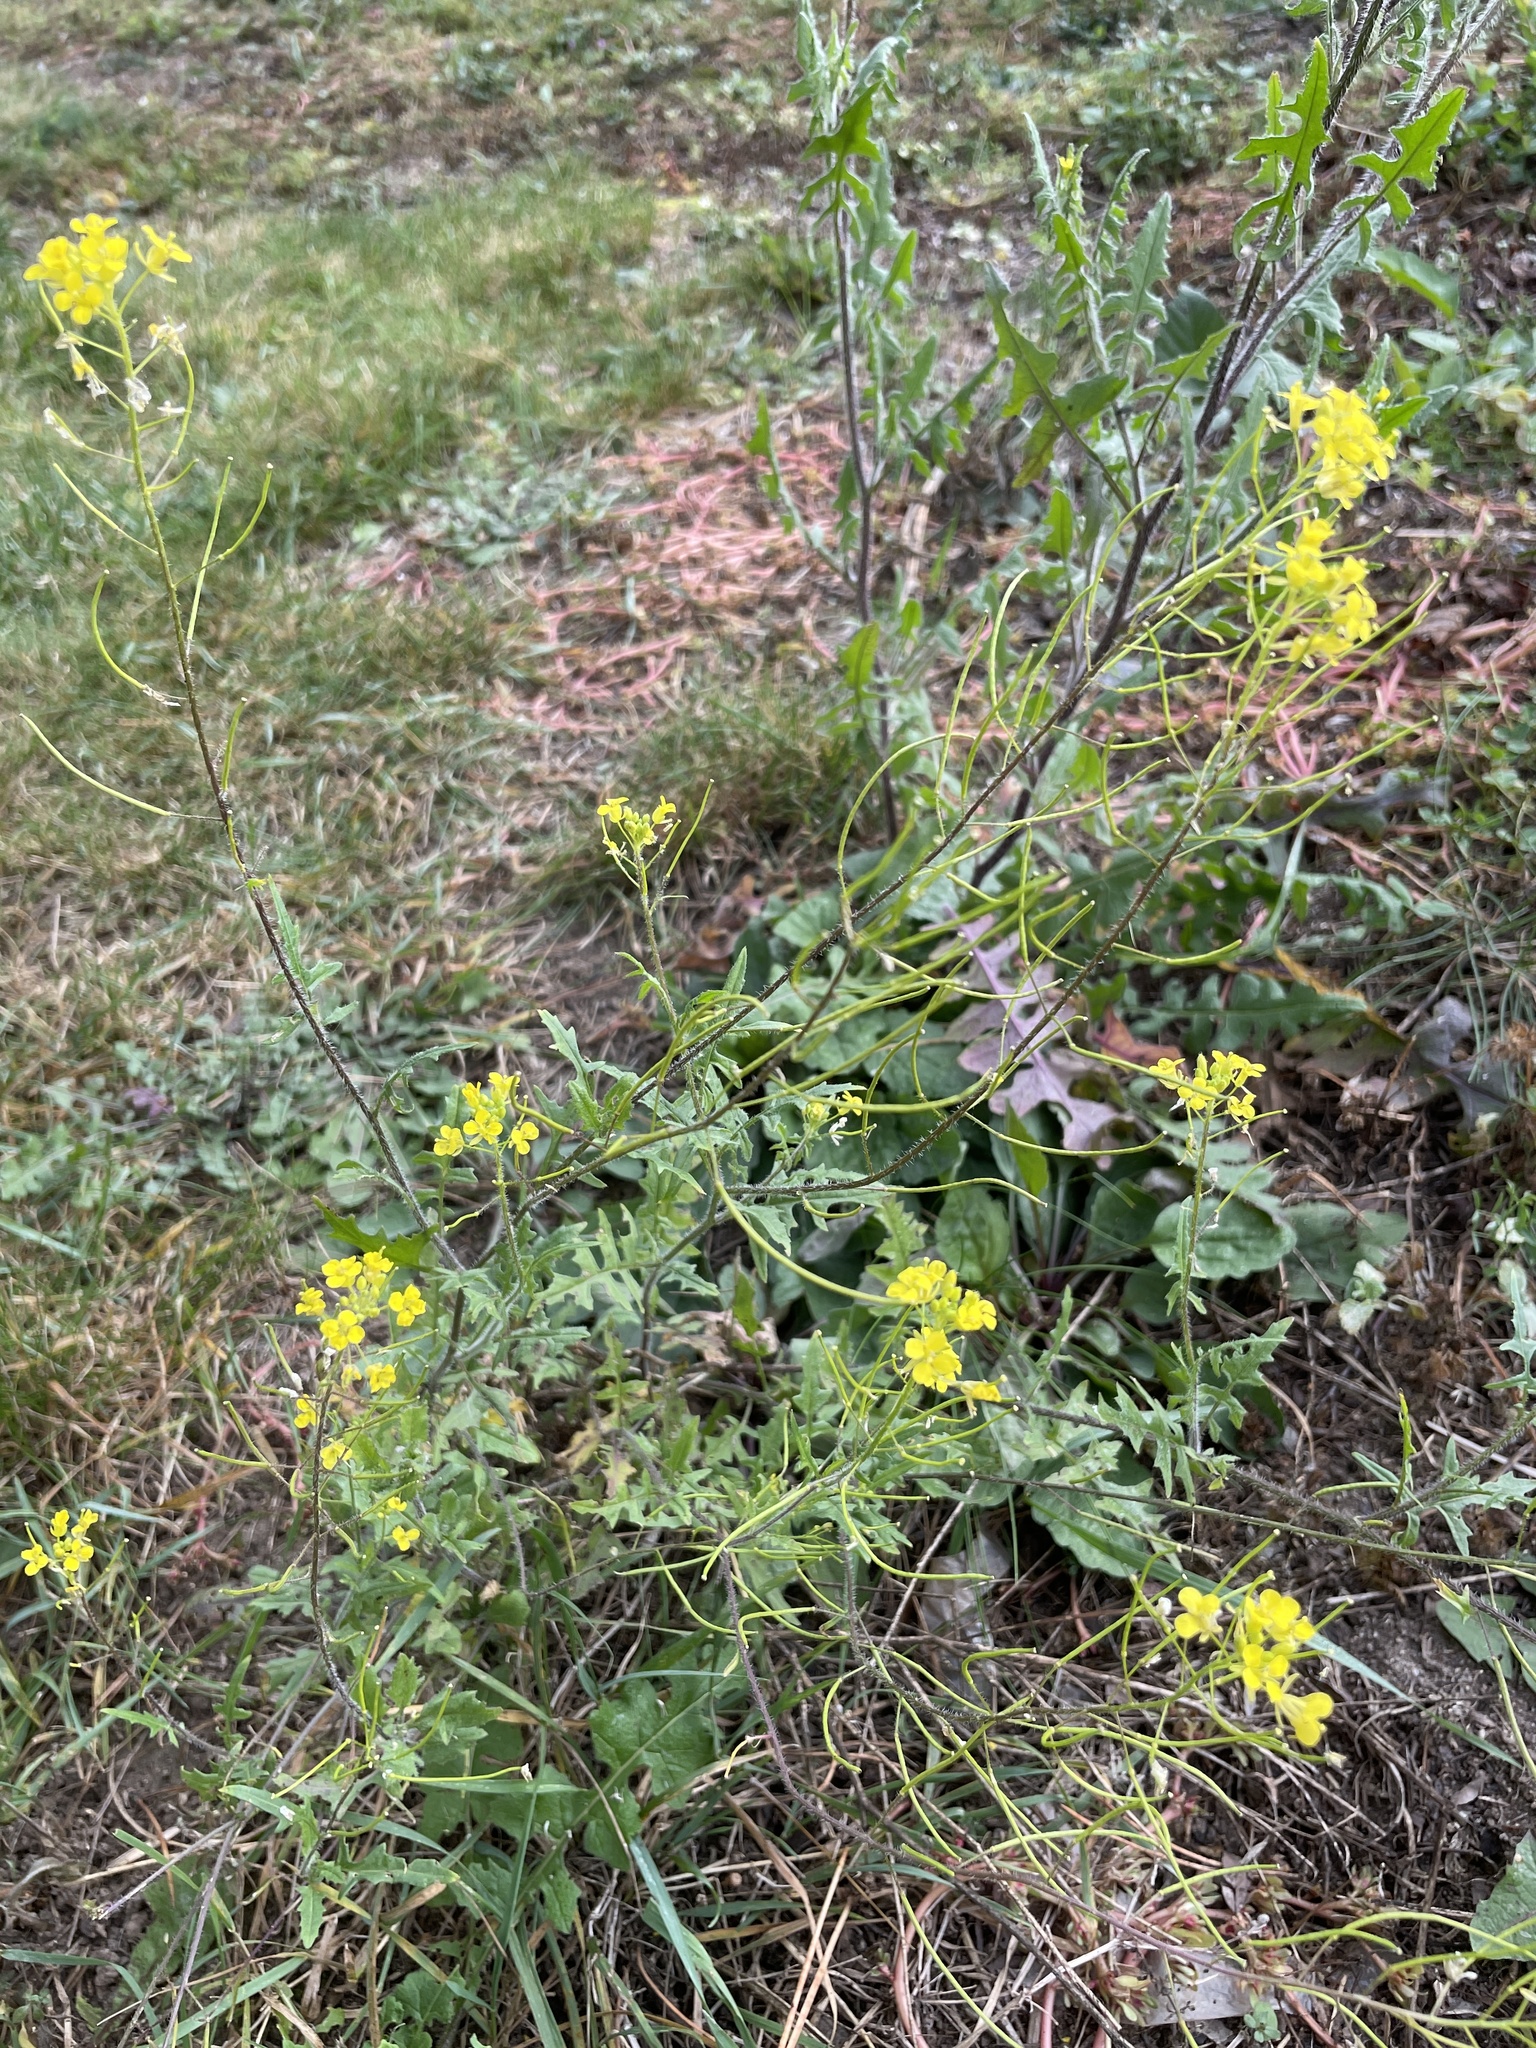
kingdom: Plantae
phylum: Tracheophyta
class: Magnoliopsida
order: Brassicales
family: Brassicaceae
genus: Sisymbrium
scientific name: Sisymbrium loeselii
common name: False london-rocket
